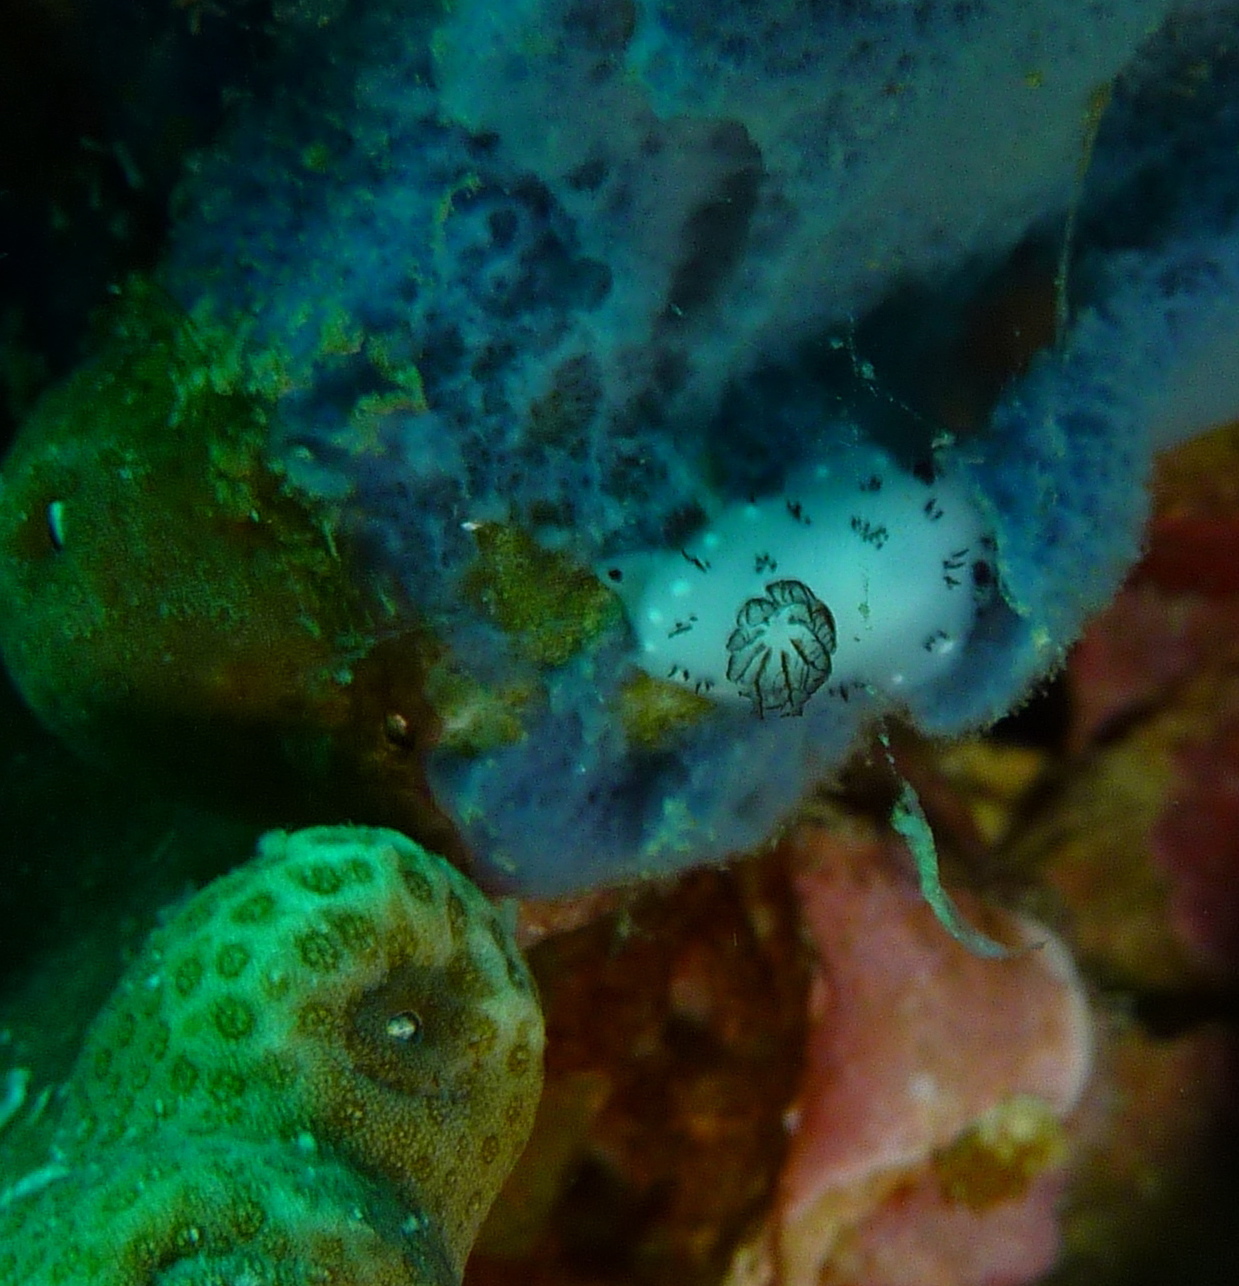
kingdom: Animalia
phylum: Mollusca
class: Gastropoda
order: Nudibranchia
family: Discodorididae
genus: Jorunna
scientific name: Jorunna funebris
